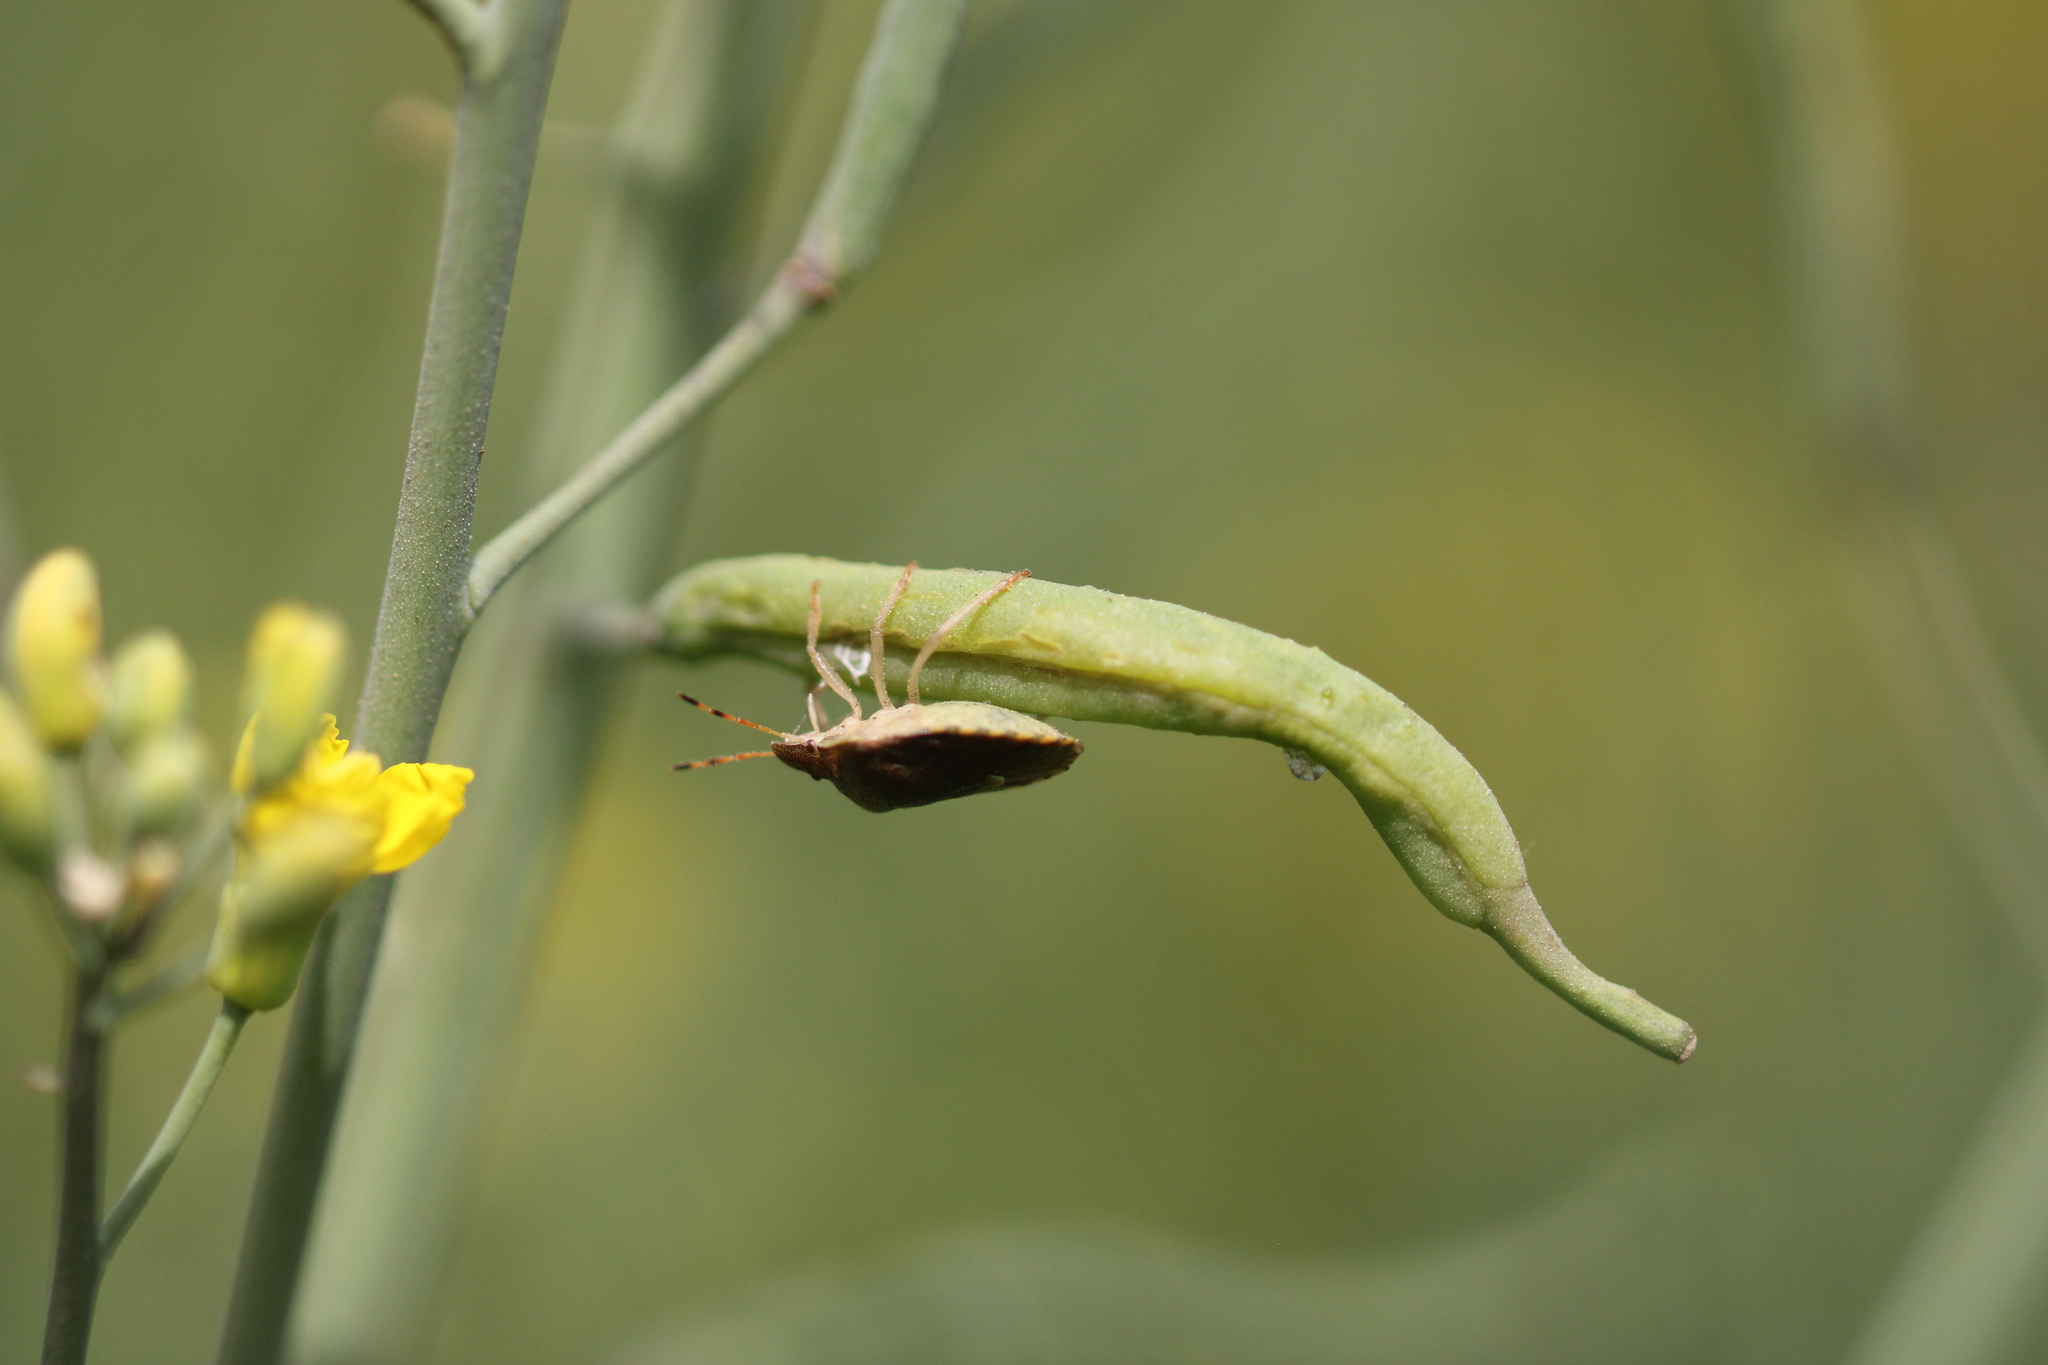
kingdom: Animalia
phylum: Arthropoda
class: Insecta
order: Hemiptera
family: Pentatomidae
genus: Holcostethus
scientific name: Holcostethus strictus
